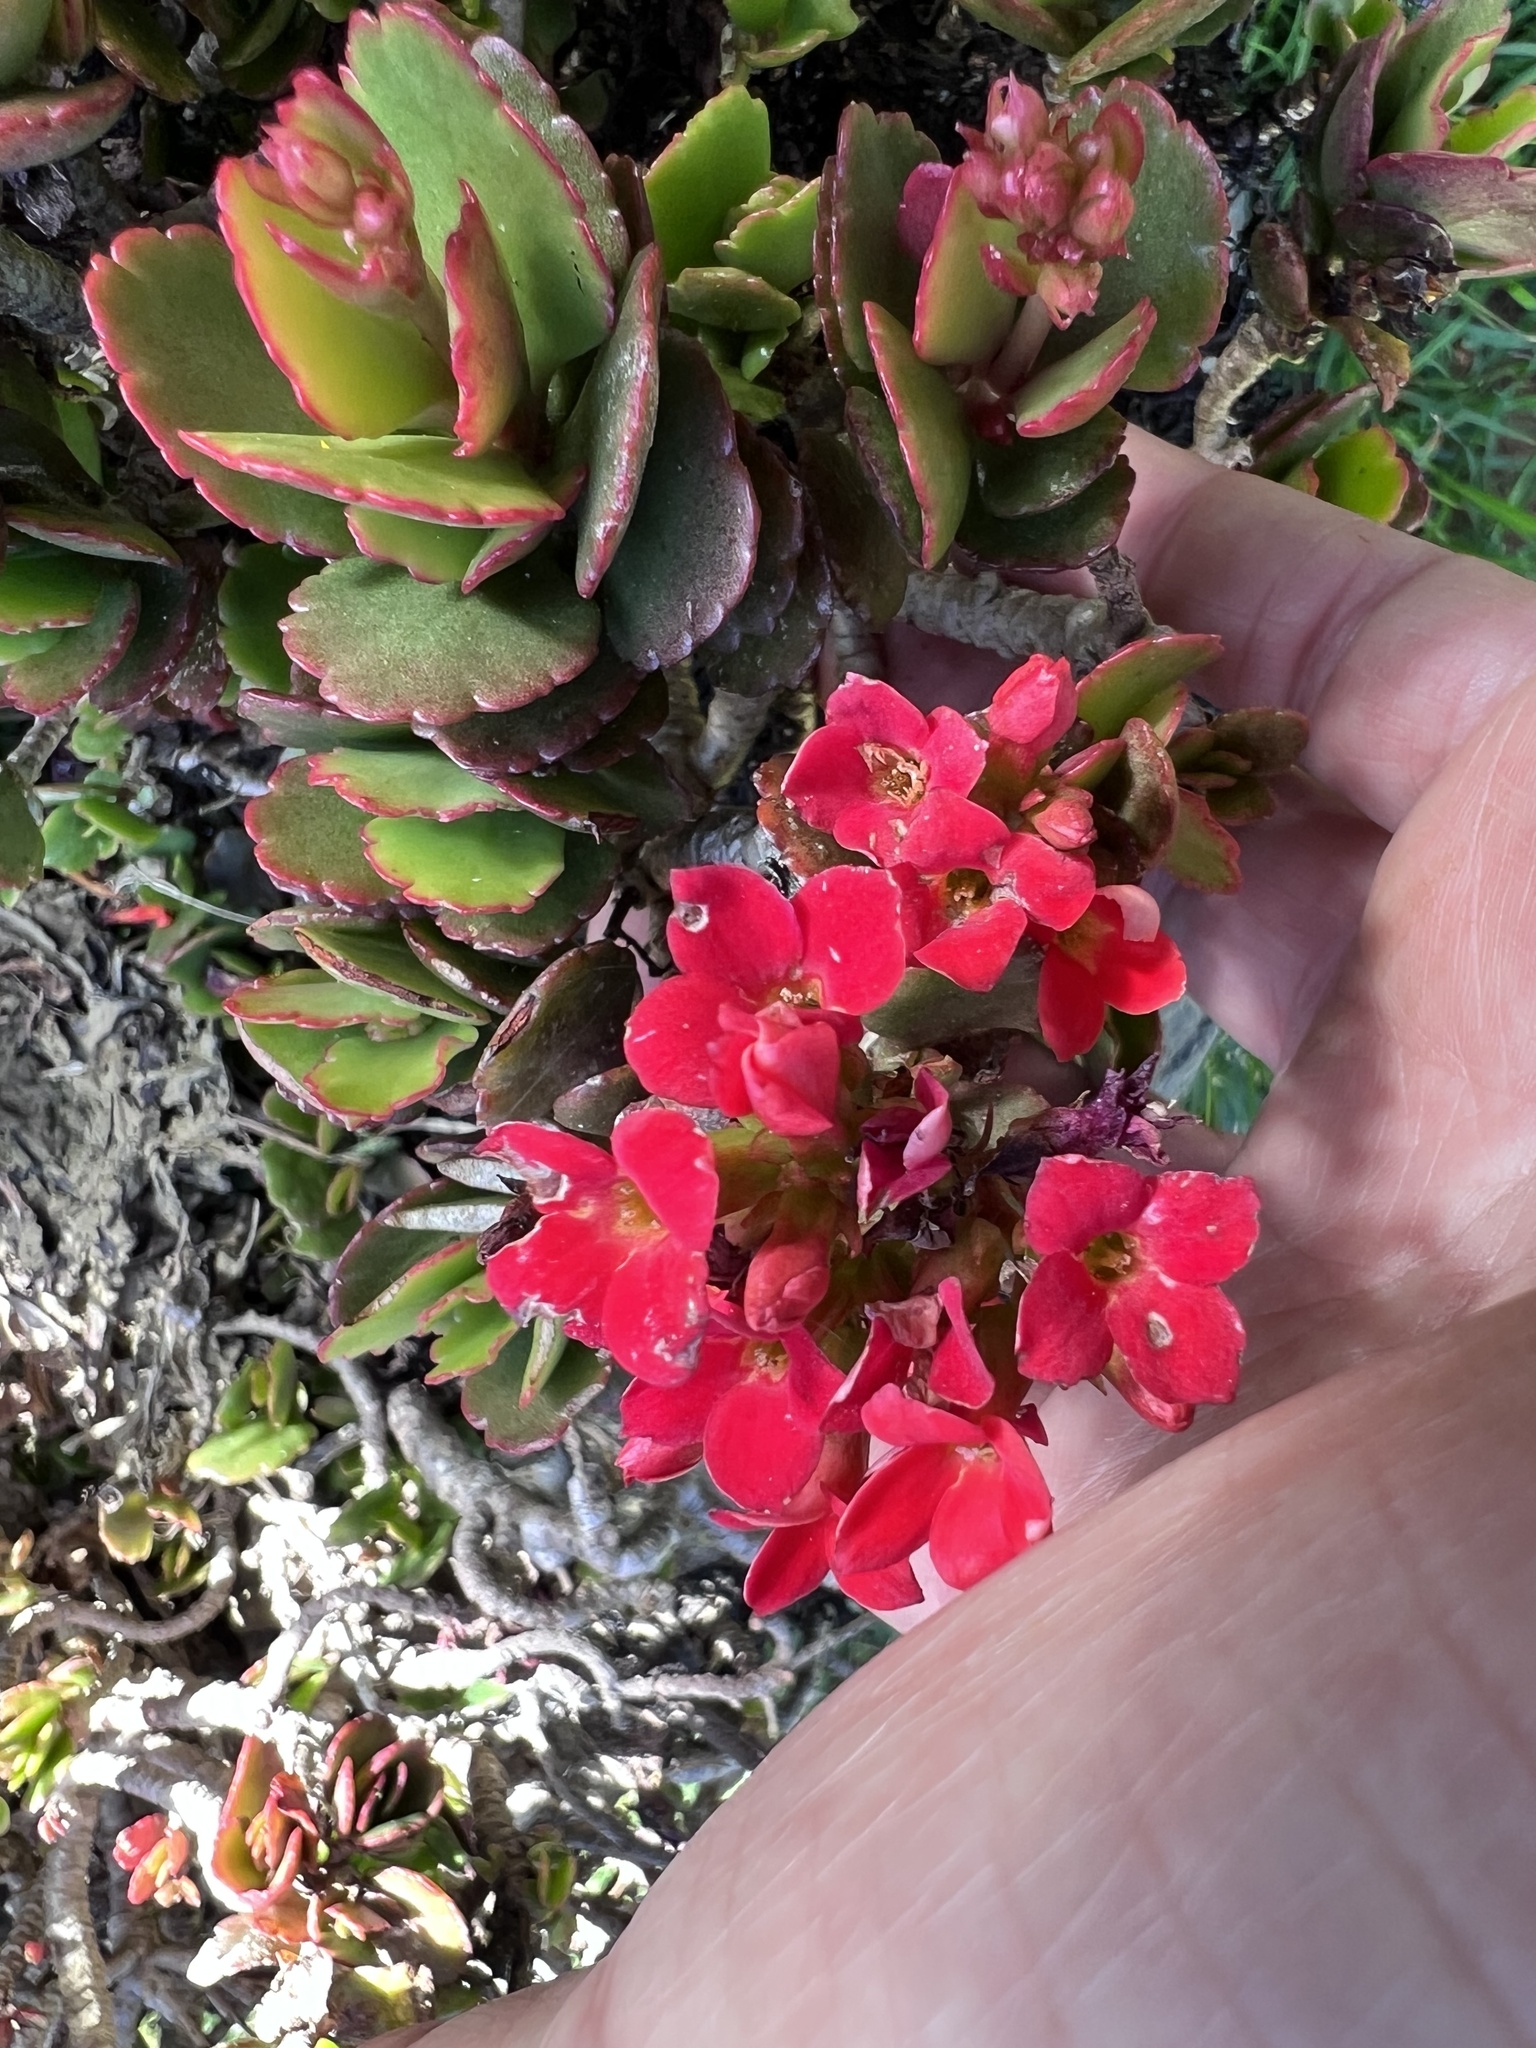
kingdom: Plantae
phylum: Tracheophyta
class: Magnoliopsida
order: Saxifragales
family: Crassulaceae
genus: Kalanchoe
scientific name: Kalanchoe blossfeldiana
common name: Flaming katy
